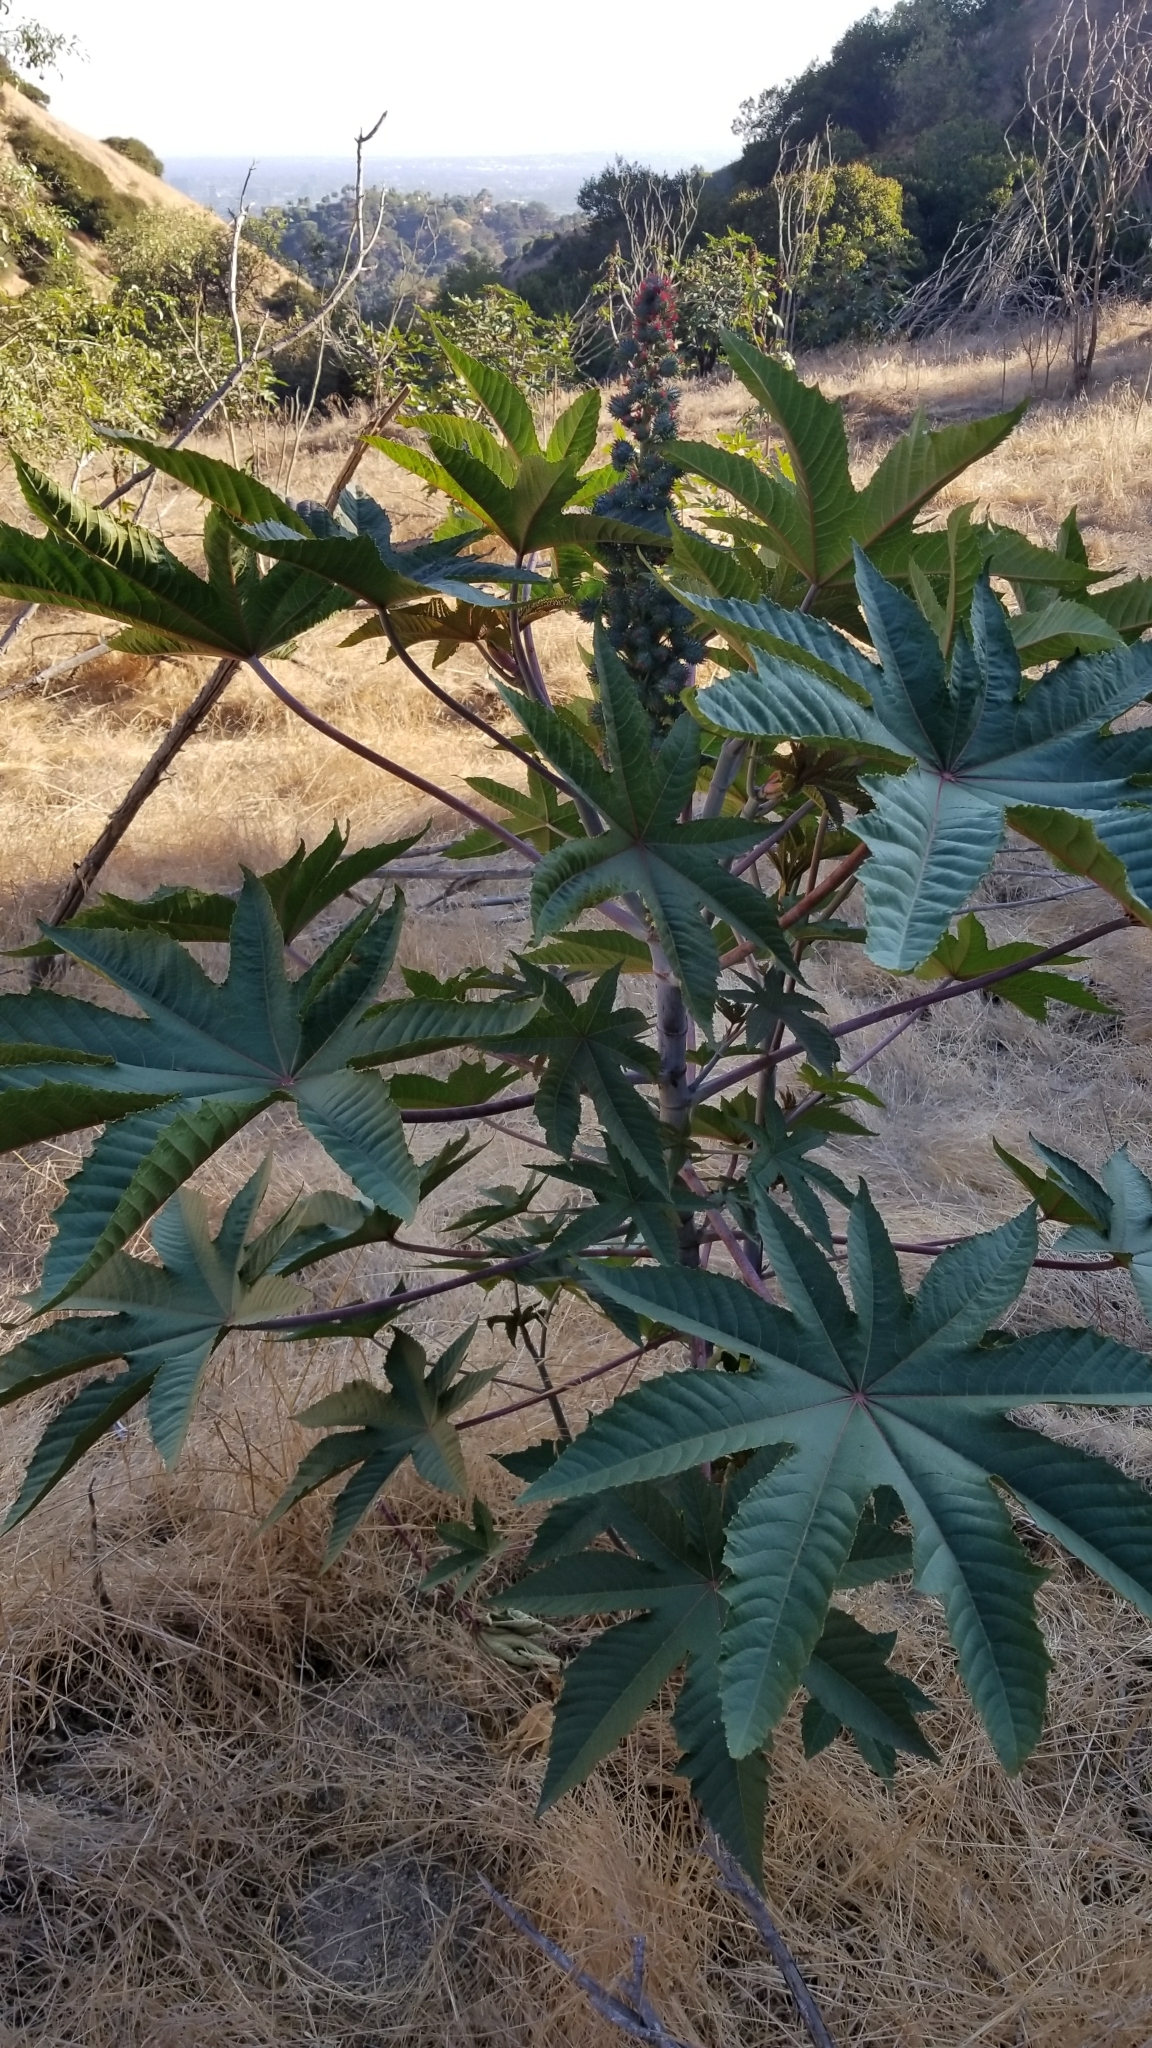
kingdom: Plantae
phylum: Tracheophyta
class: Magnoliopsida
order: Malpighiales
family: Euphorbiaceae
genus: Ricinus
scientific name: Ricinus communis
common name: Castor-oil-plant
